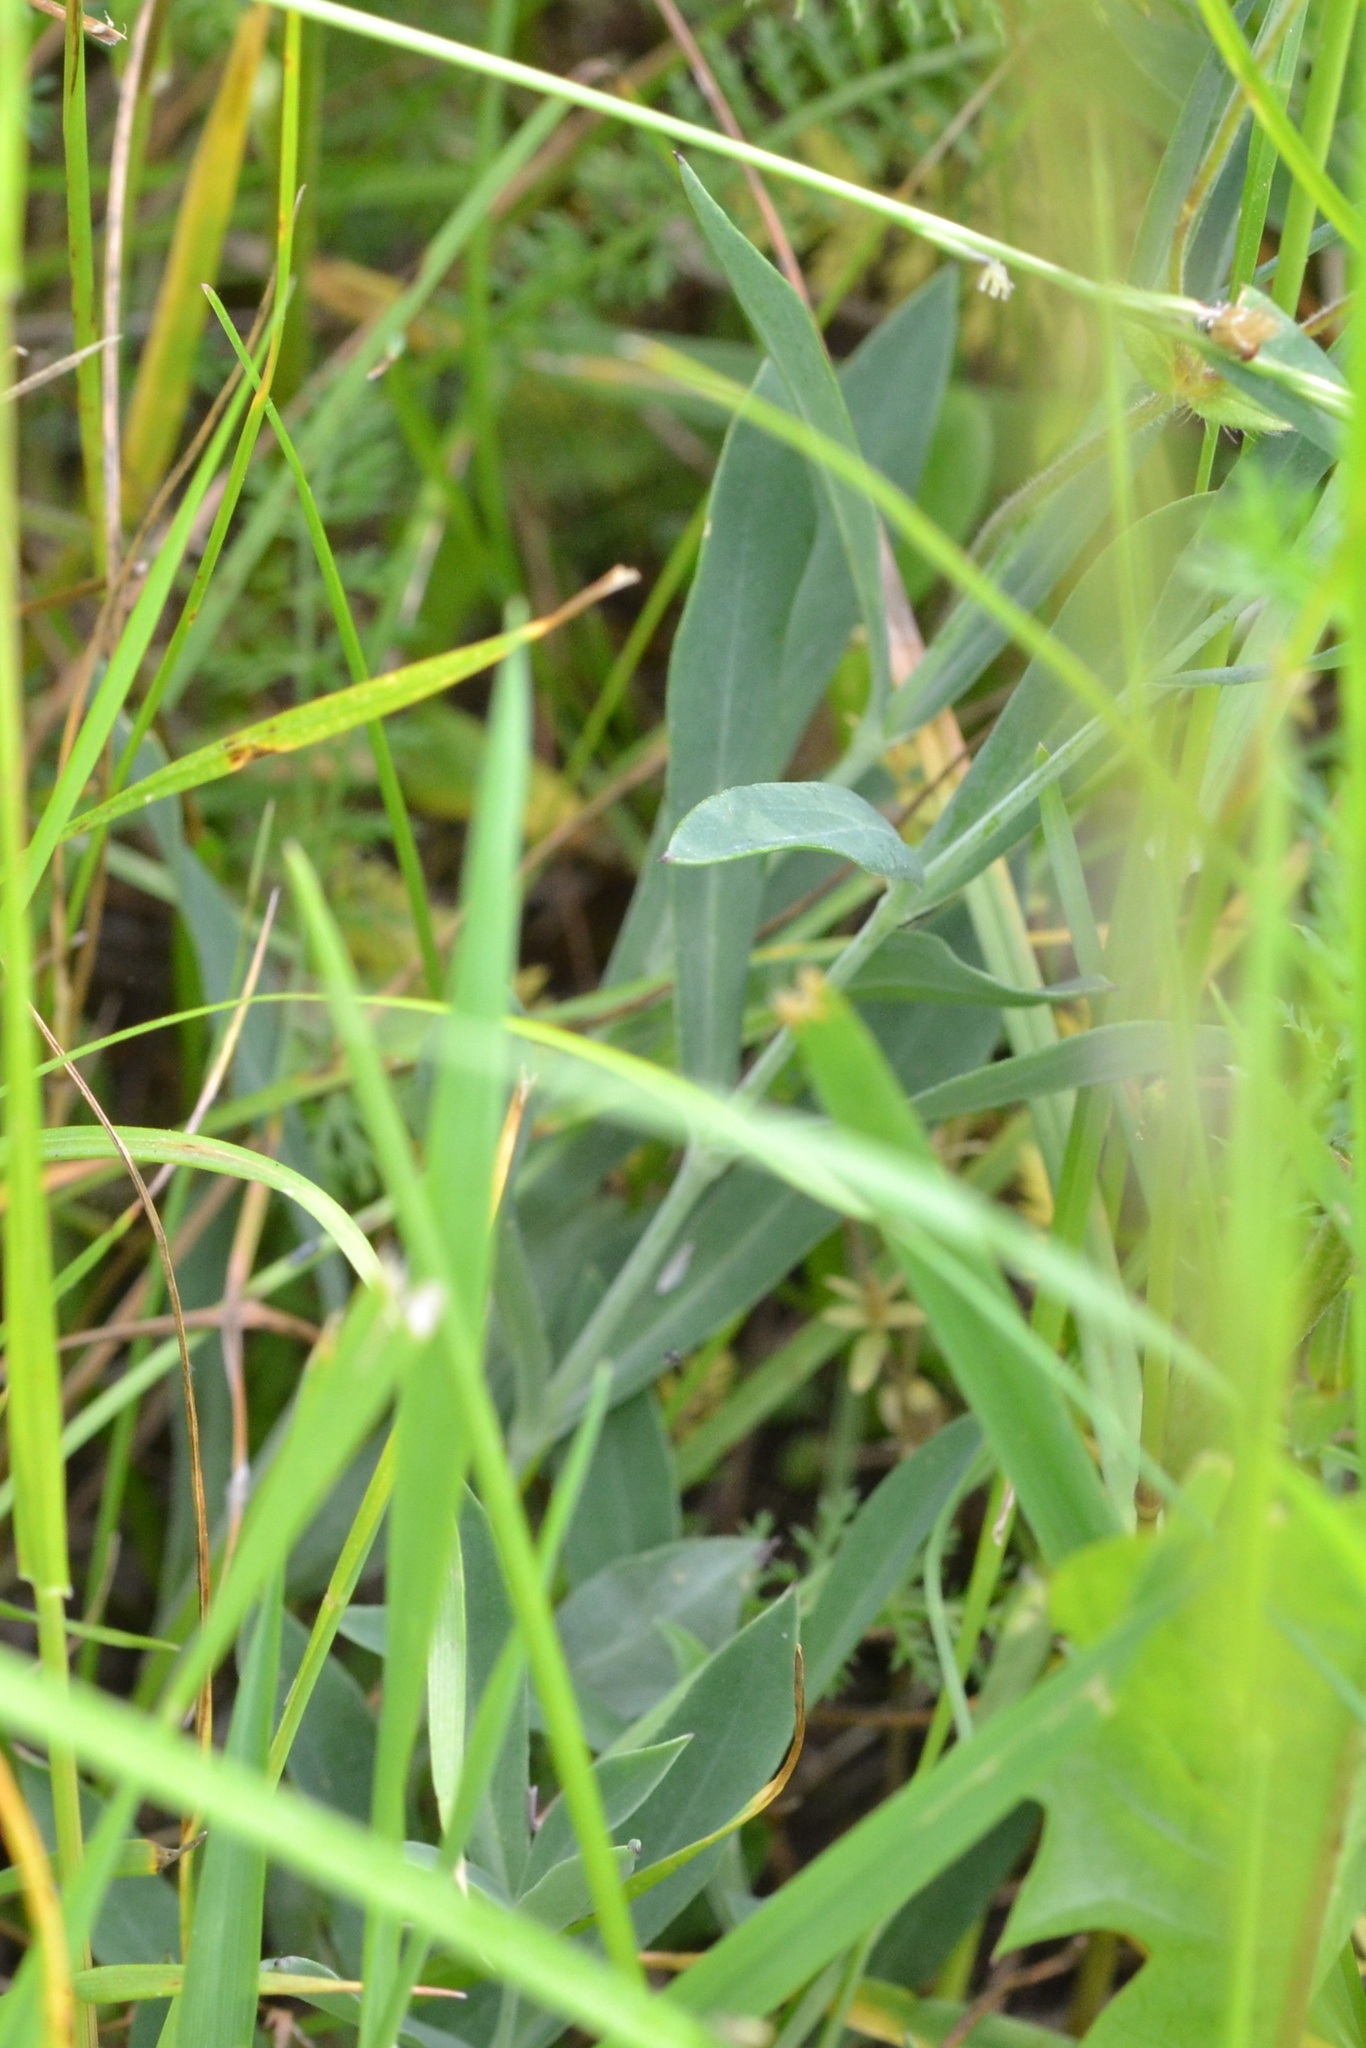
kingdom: Plantae
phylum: Tracheophyta
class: Magnoliopsida
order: Caryophyllales
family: Caryophyllaceae
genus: Silene
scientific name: Silene vulgaris
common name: Bladder campion
